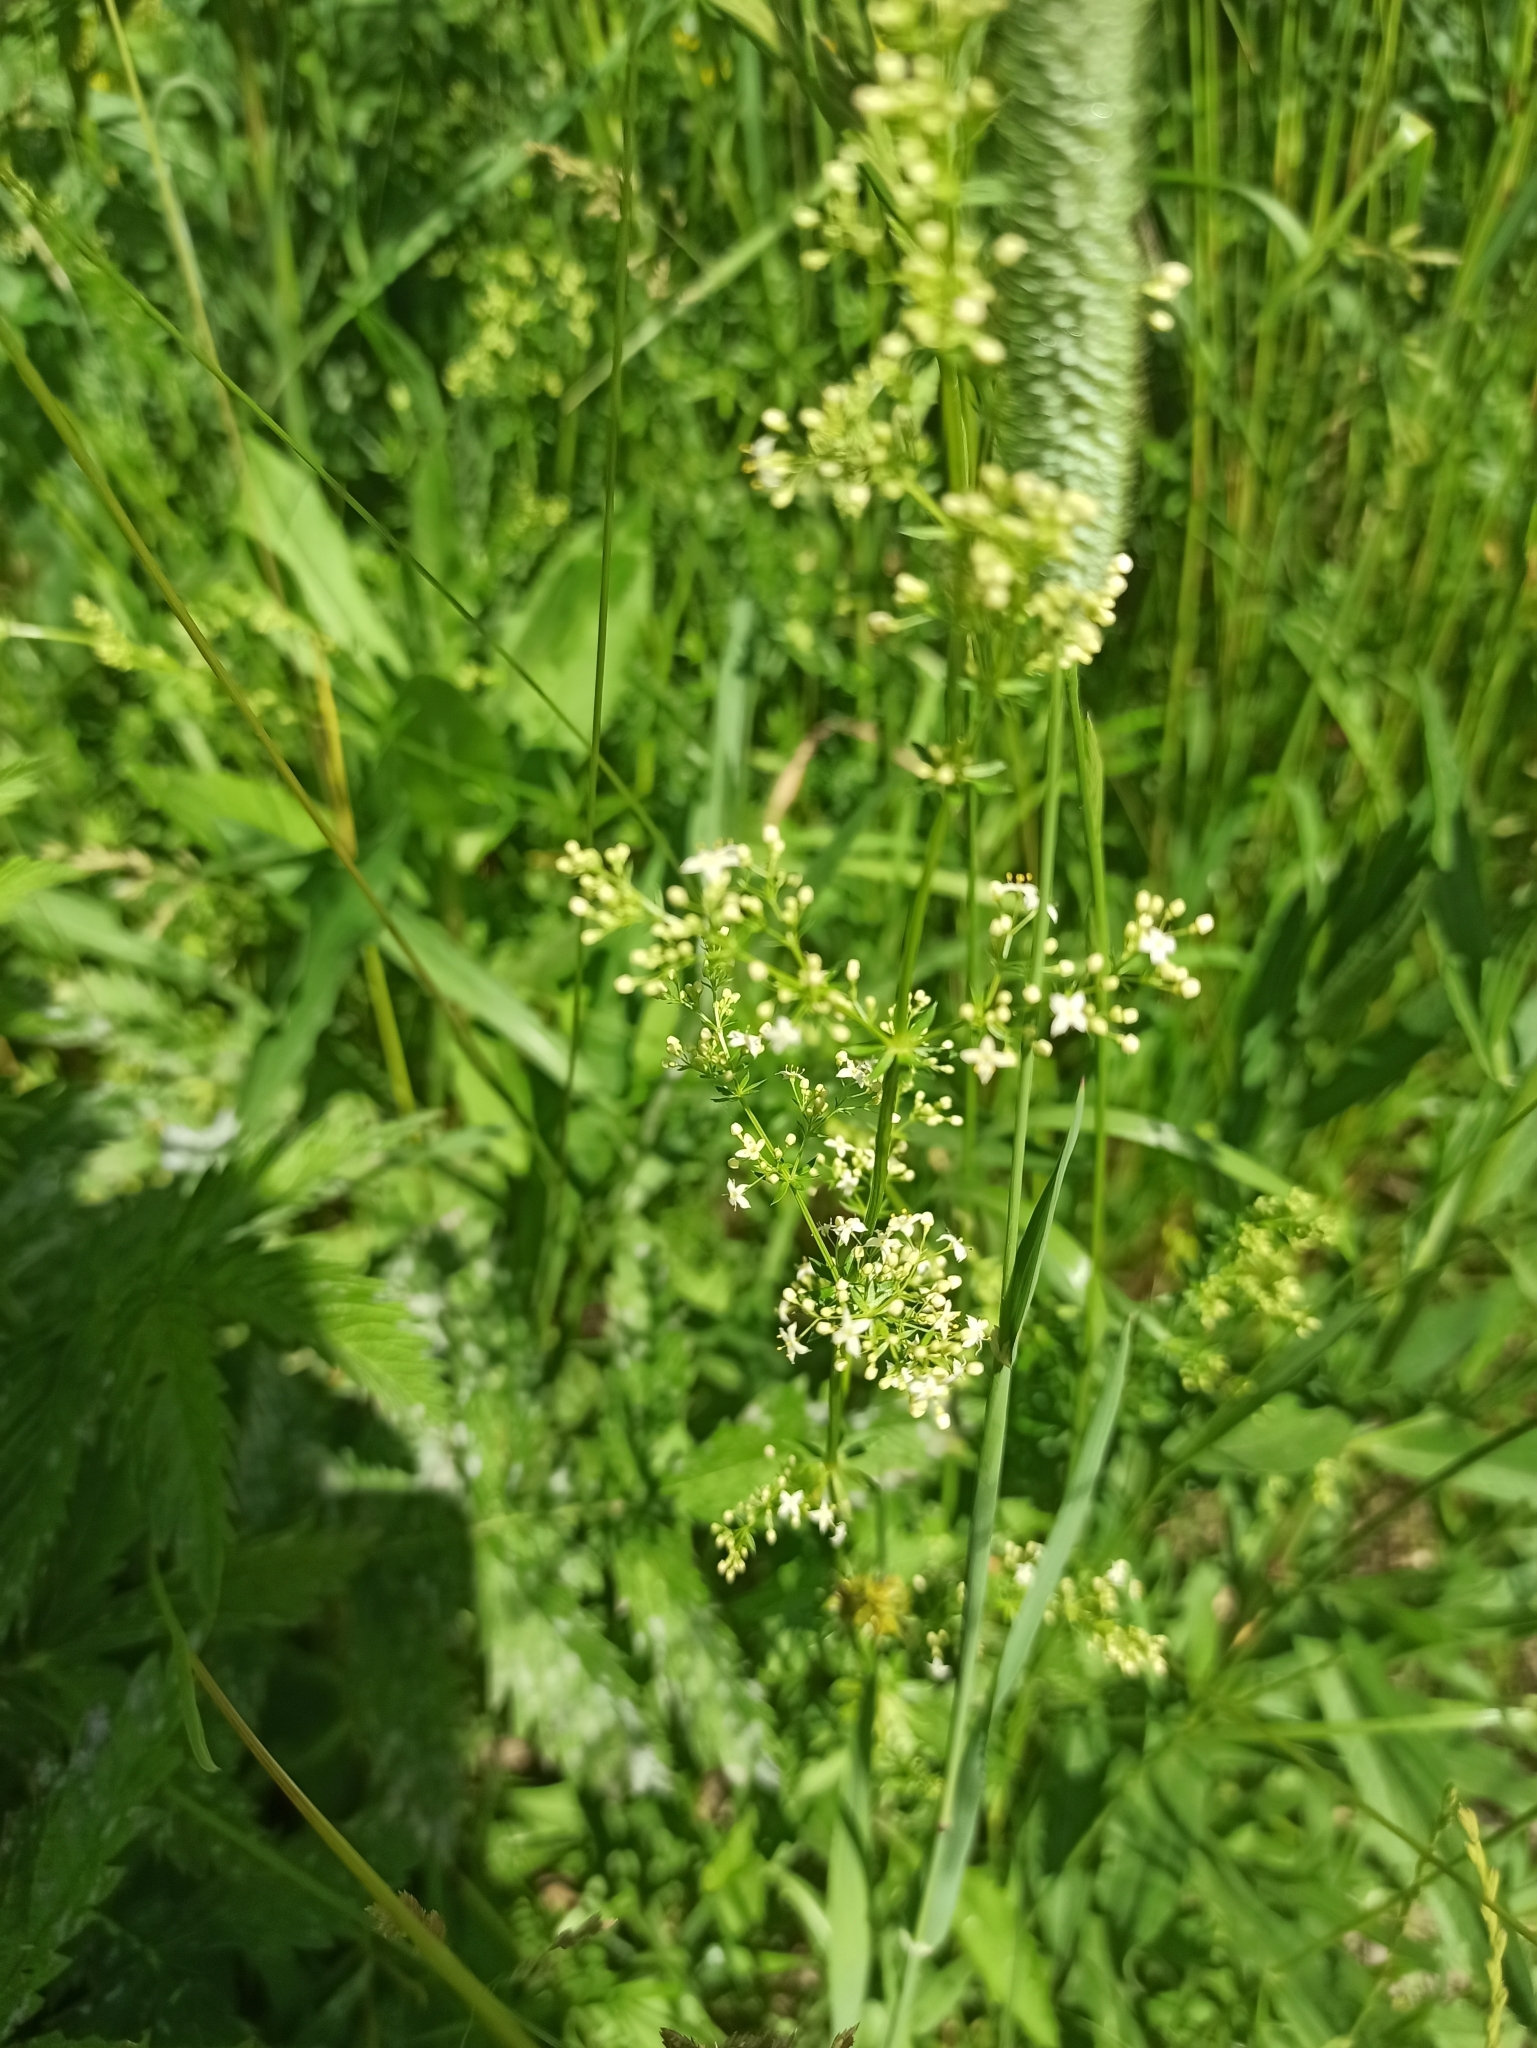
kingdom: Plantae
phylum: Tracheophyta
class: Magnoliopsida
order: Gentianales
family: Rubiaceae
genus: Galium
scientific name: Galium mollugo
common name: Hedge bedstraw
